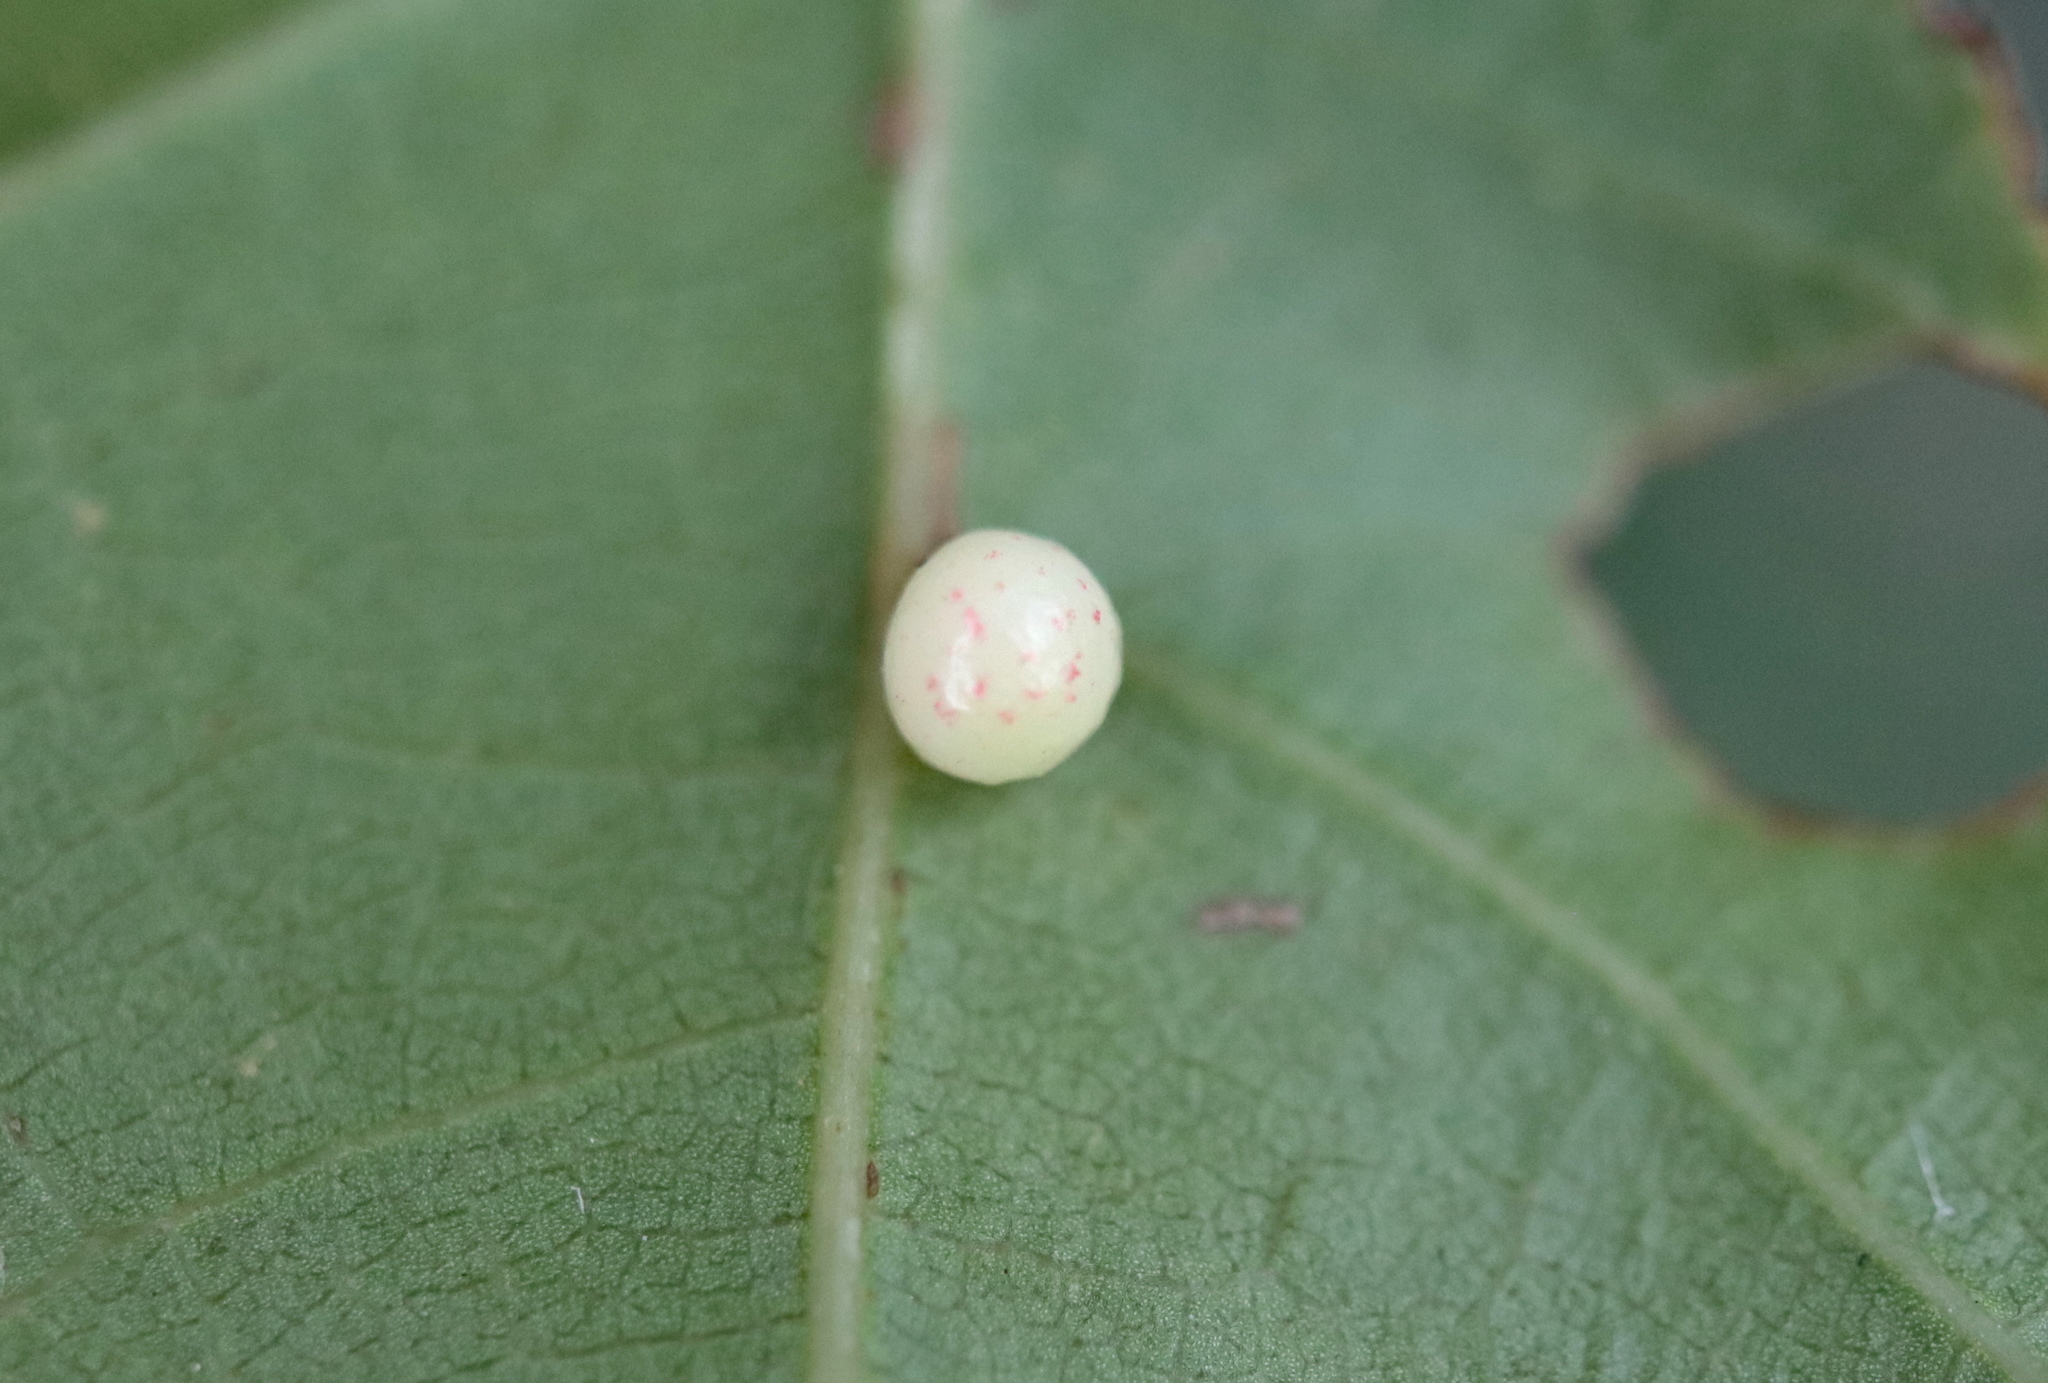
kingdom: Animalia
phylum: Arthropoda
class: Insecta
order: Hymenoptera
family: Cynipidae
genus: Zopheroteras
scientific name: Zopheroteras
